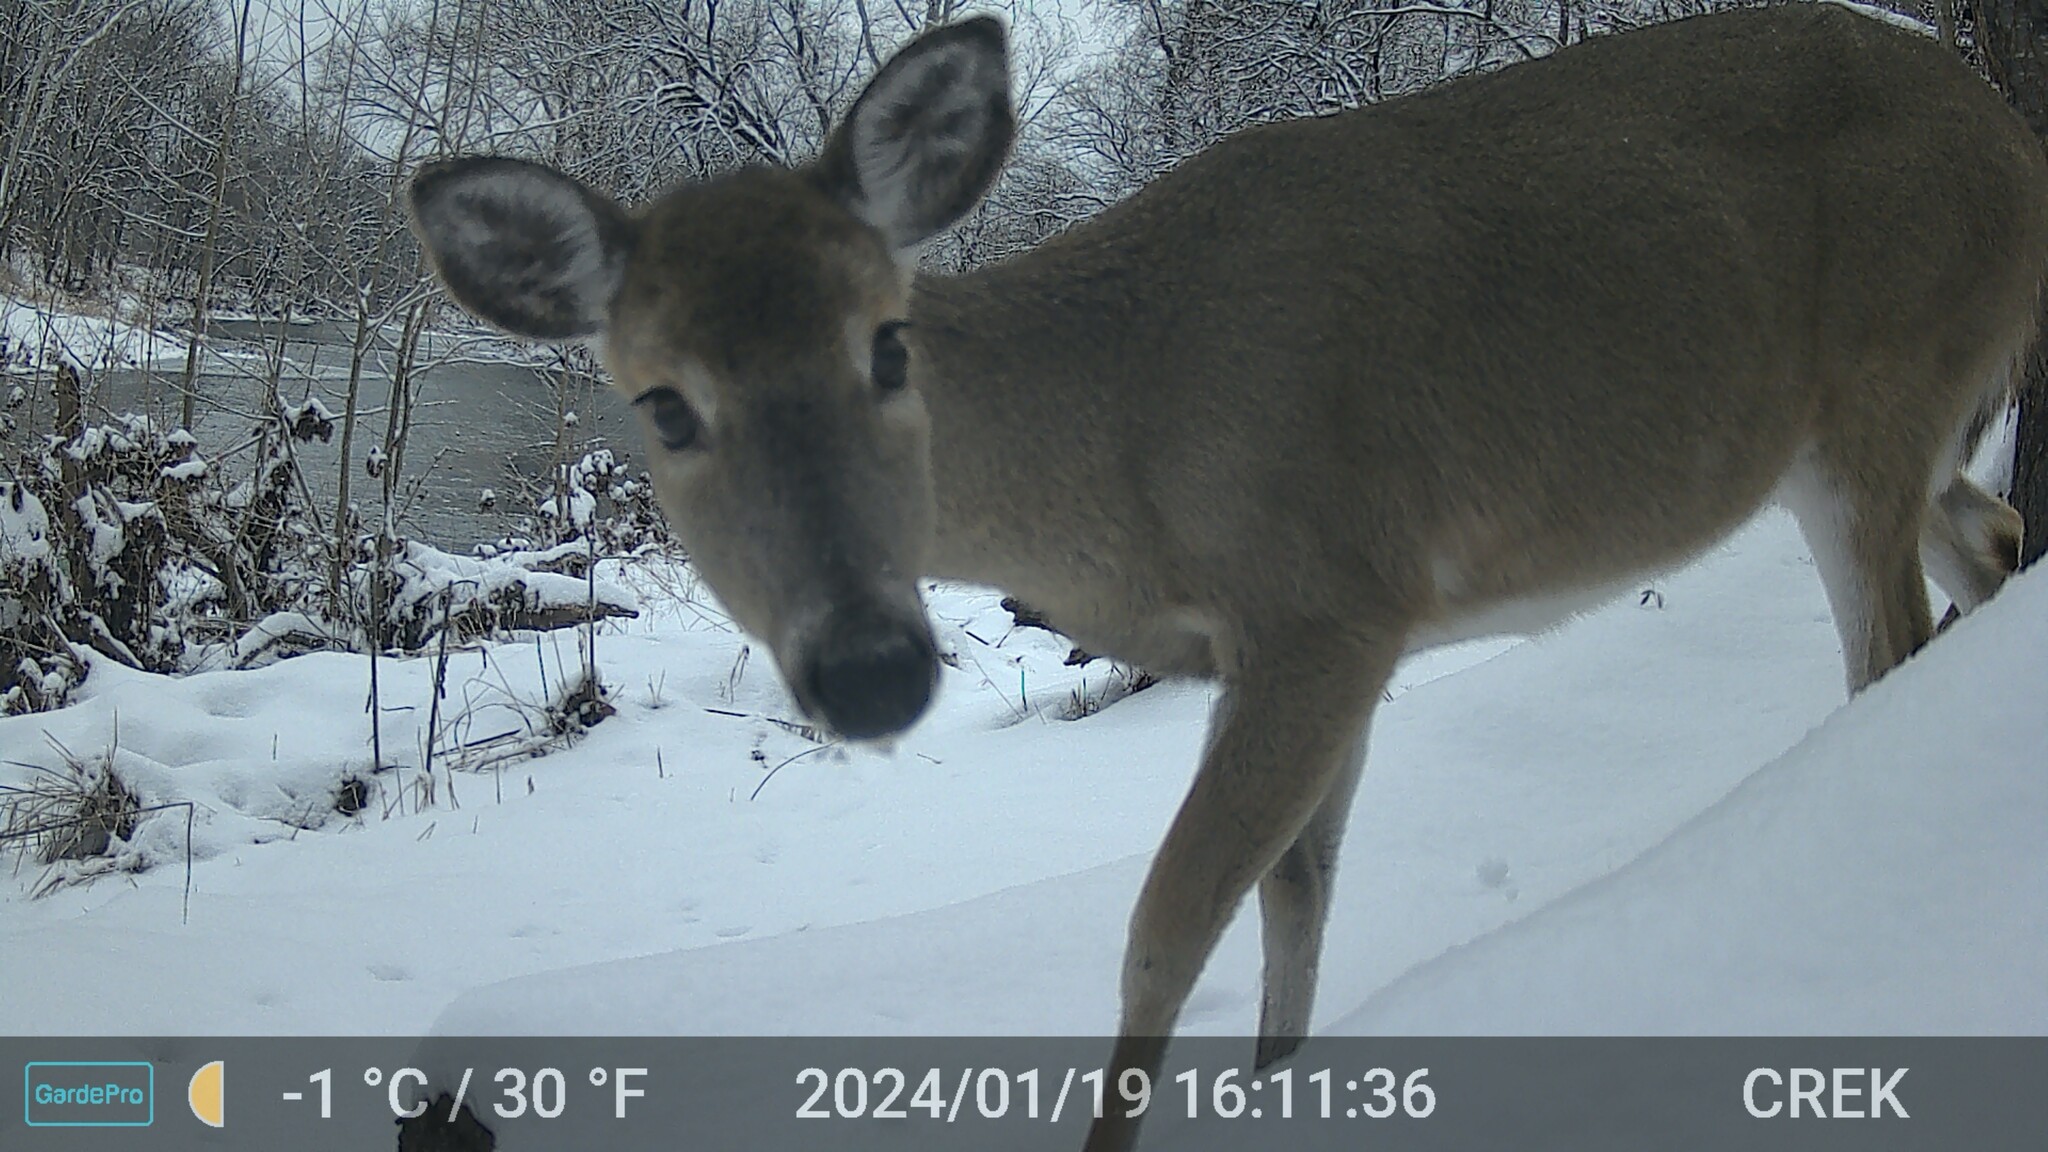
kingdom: Animalia
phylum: Chordata
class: Mammalia
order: Artiodactyla
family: Cervidae
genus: Odocoileus
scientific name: Odocoileus virginianus
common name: White-tailed deer
